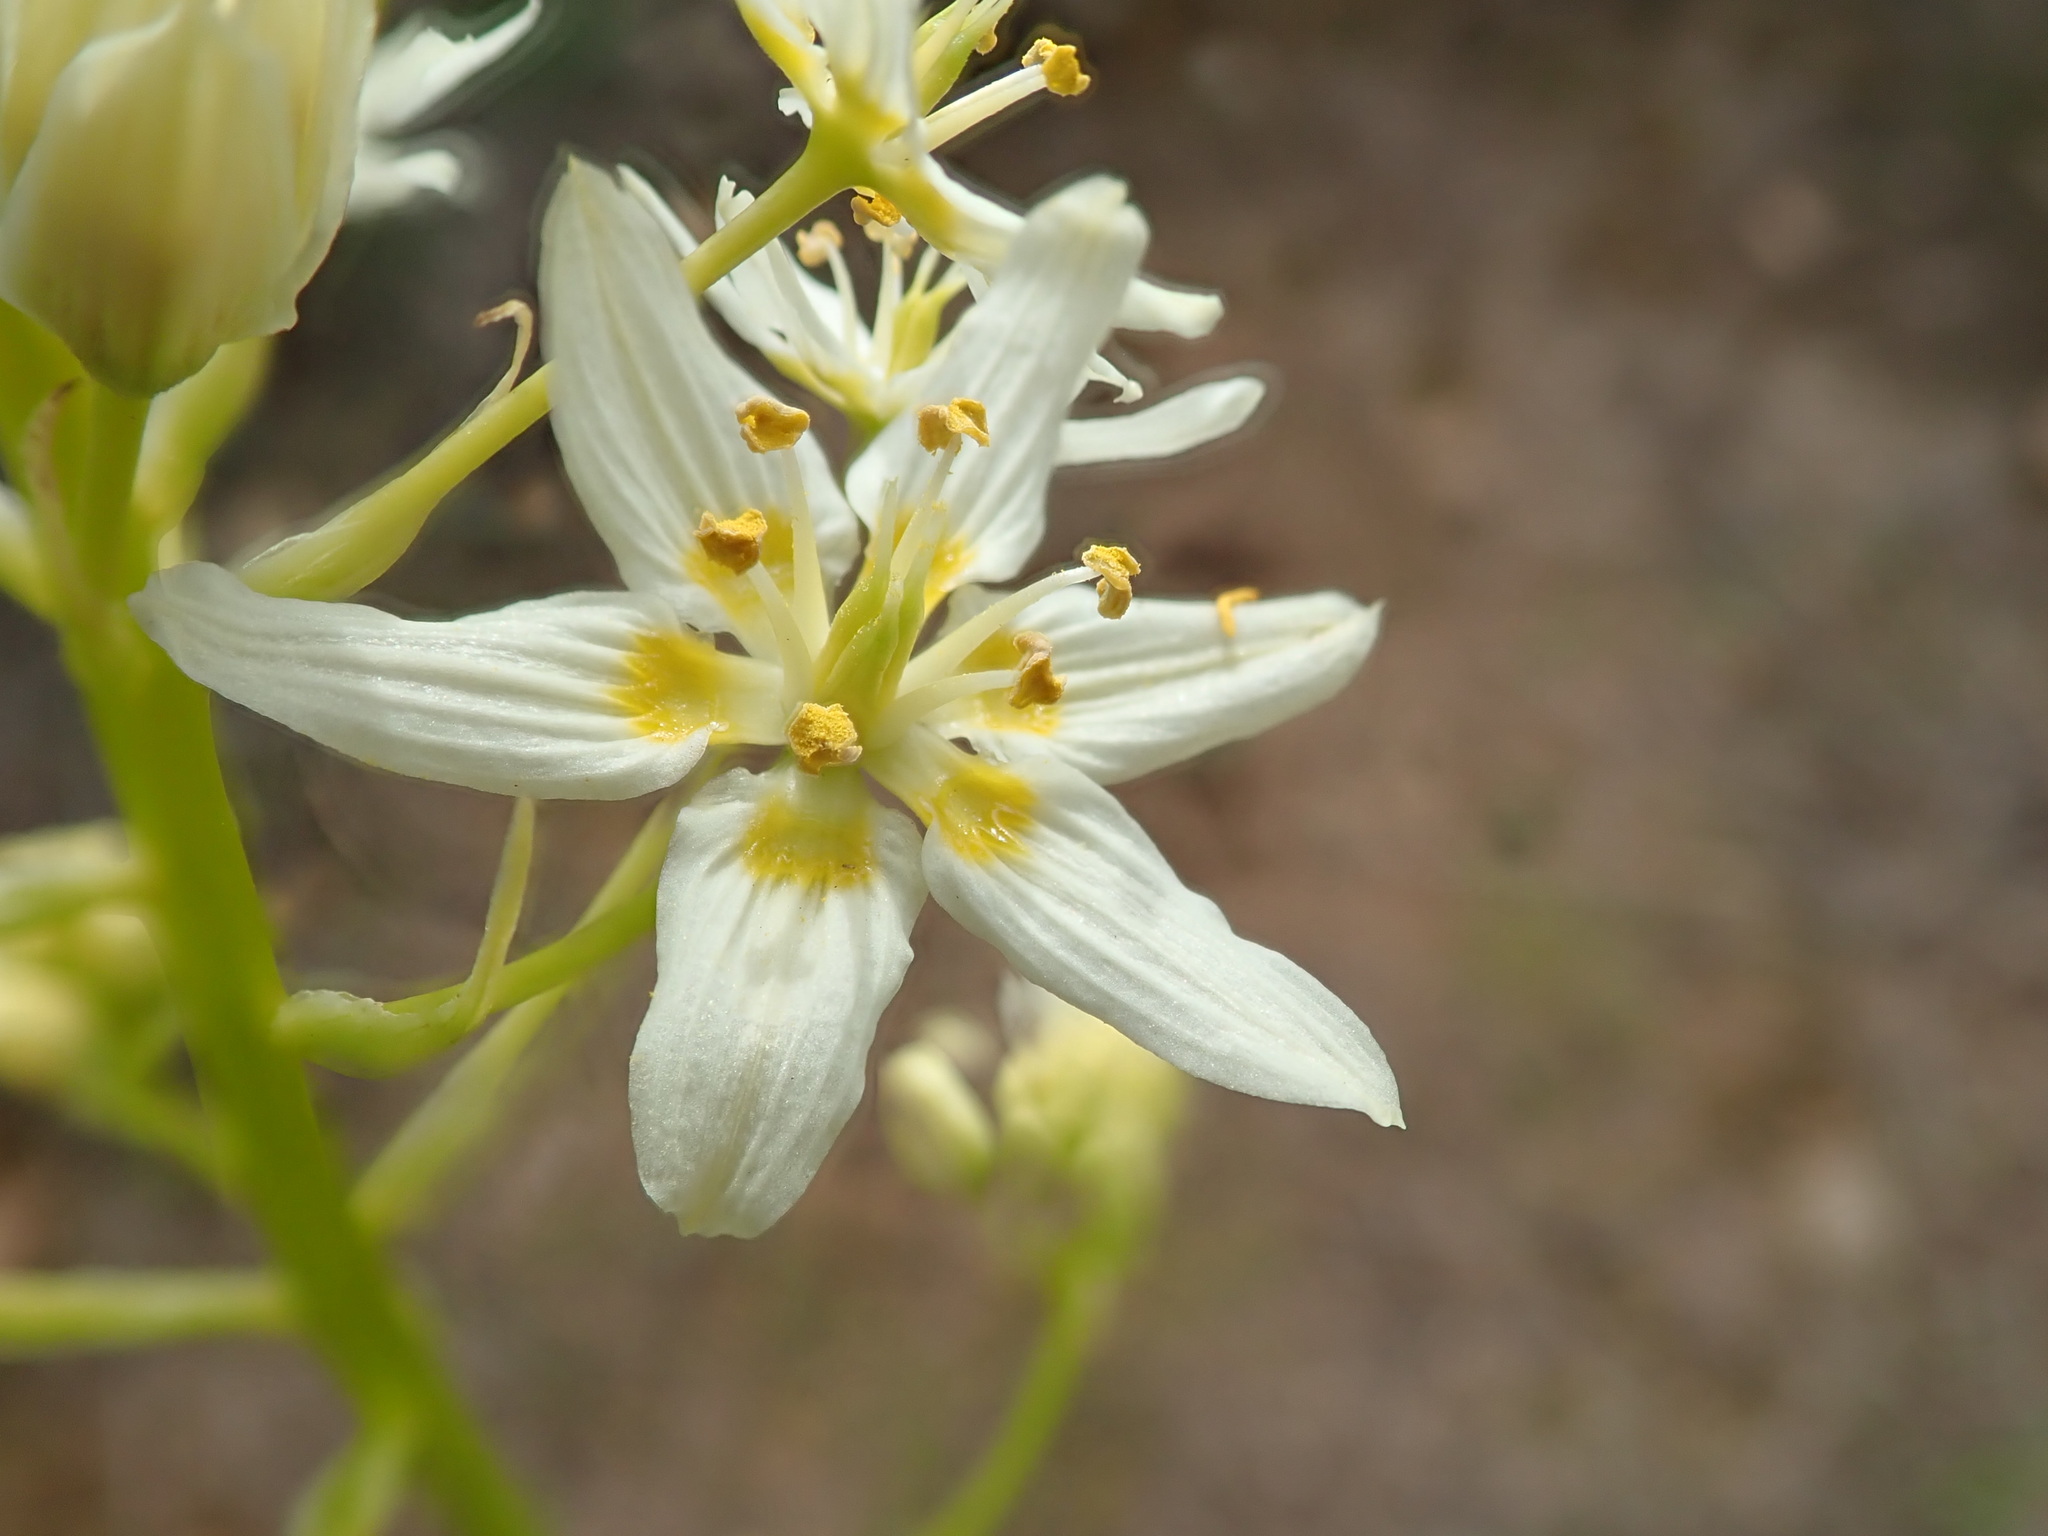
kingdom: Plantae
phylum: Tracheophyta
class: Liliopsida
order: Liliales
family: Melanthiaceae
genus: Toxicoscordion
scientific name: Toxicoscordion fremontii
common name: Fremont's death camas
